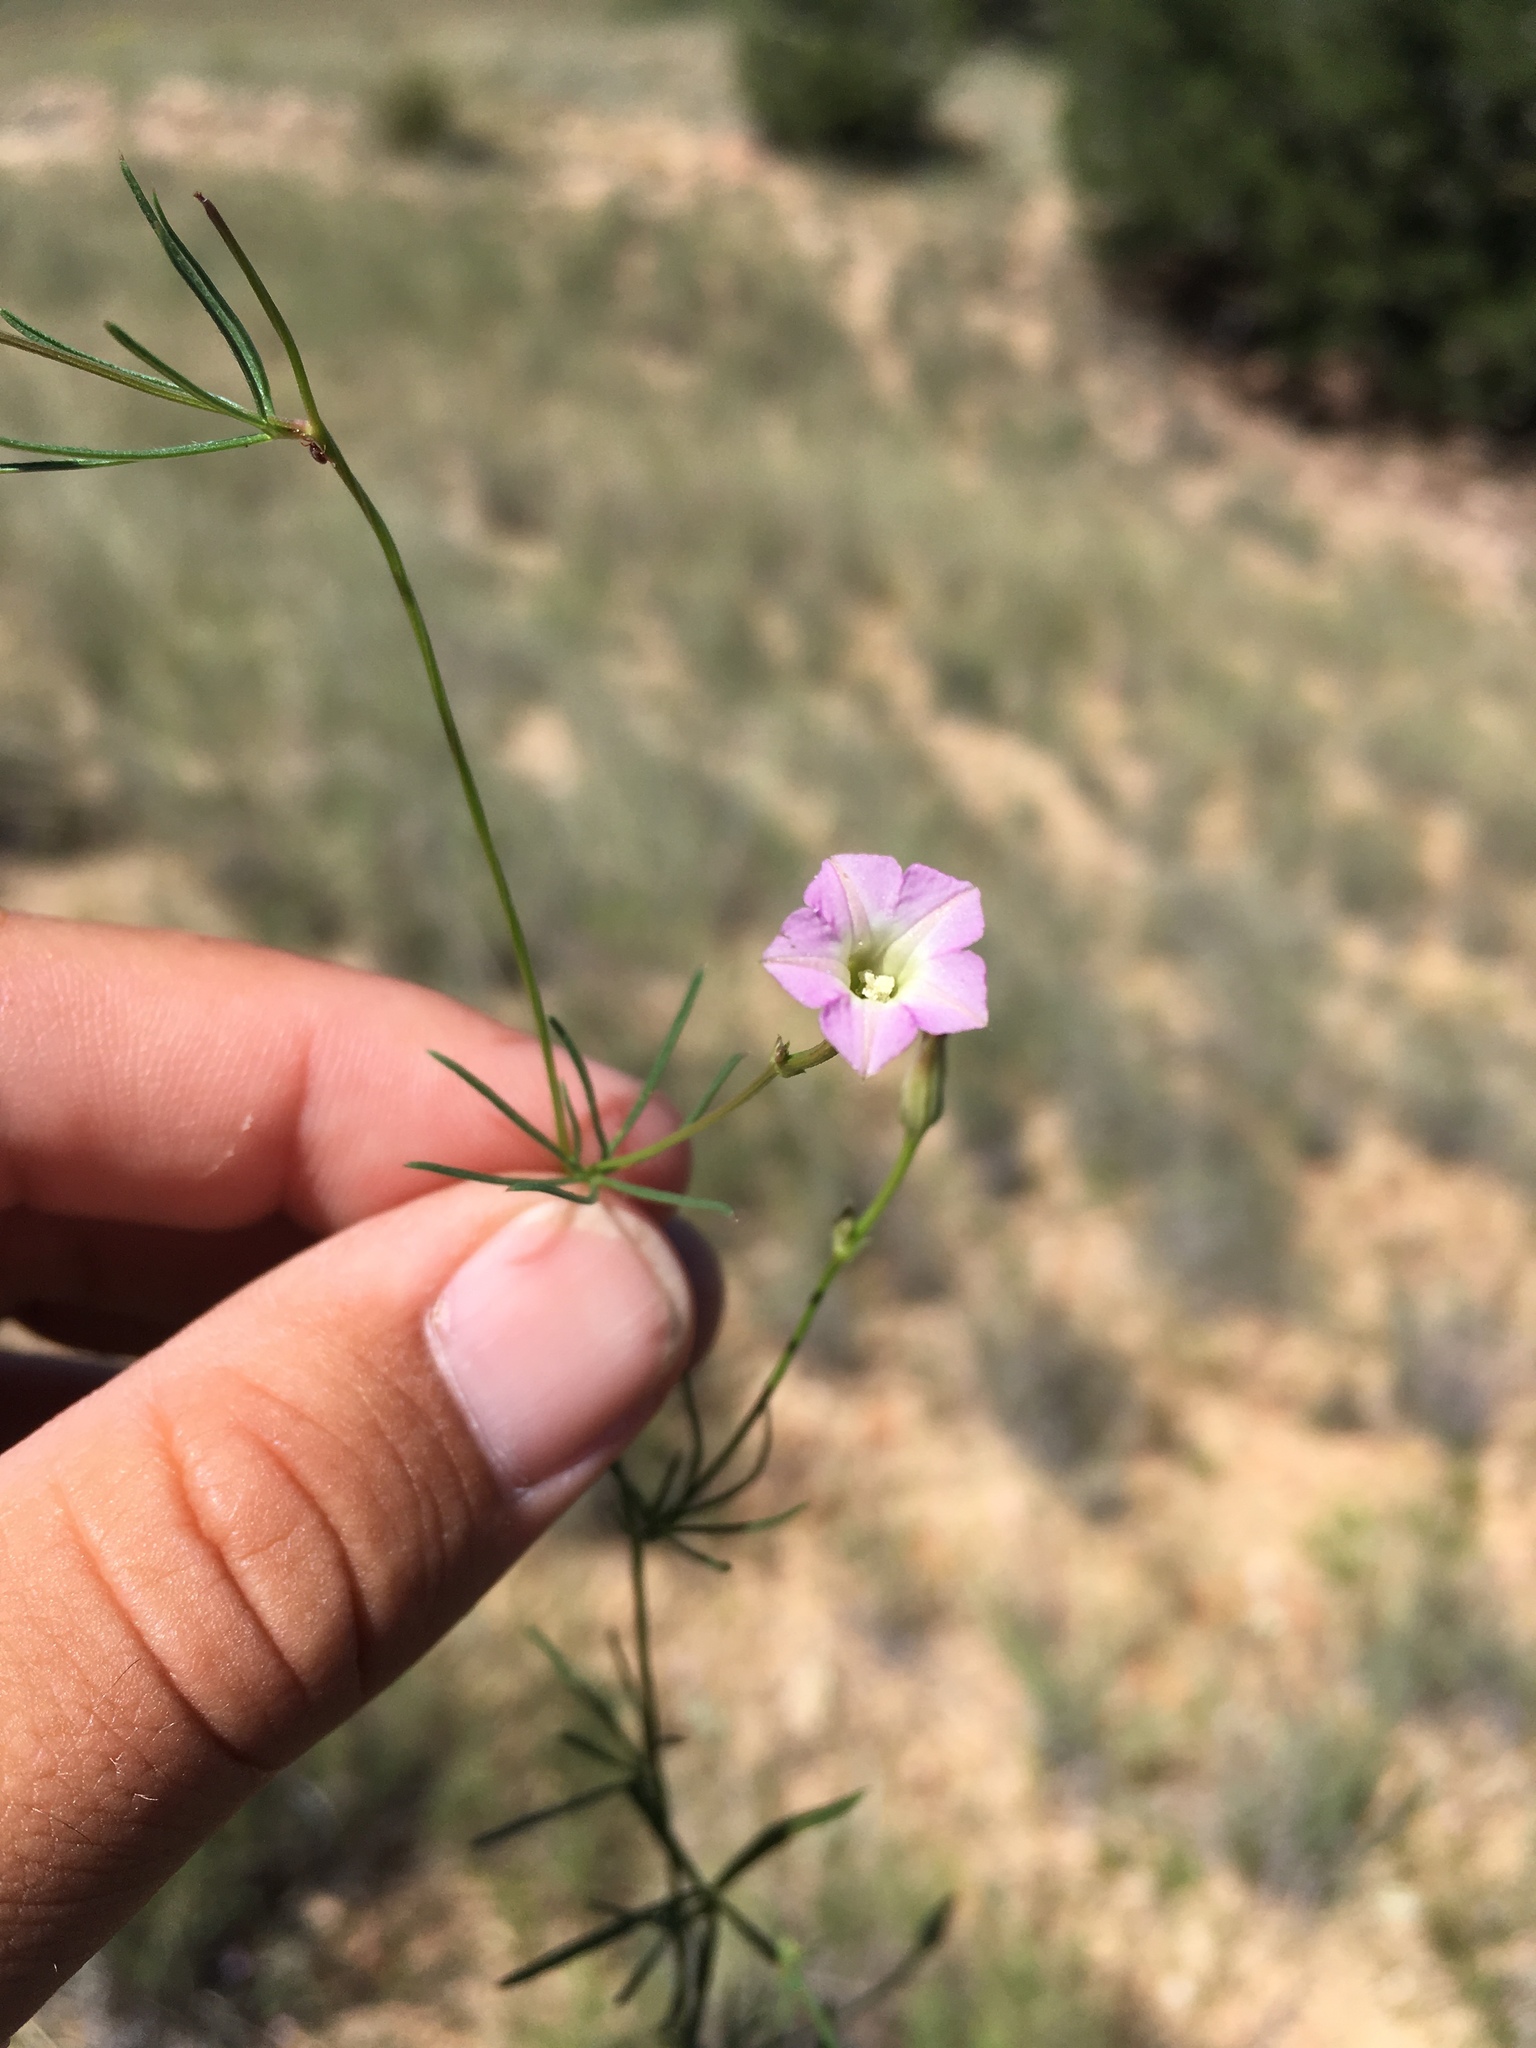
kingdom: Plantae
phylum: Tracheophyta
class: Magnoliopsida
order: Solanales
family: Convolvulaceae
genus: Ipomoea
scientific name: Ipomoea costellata
